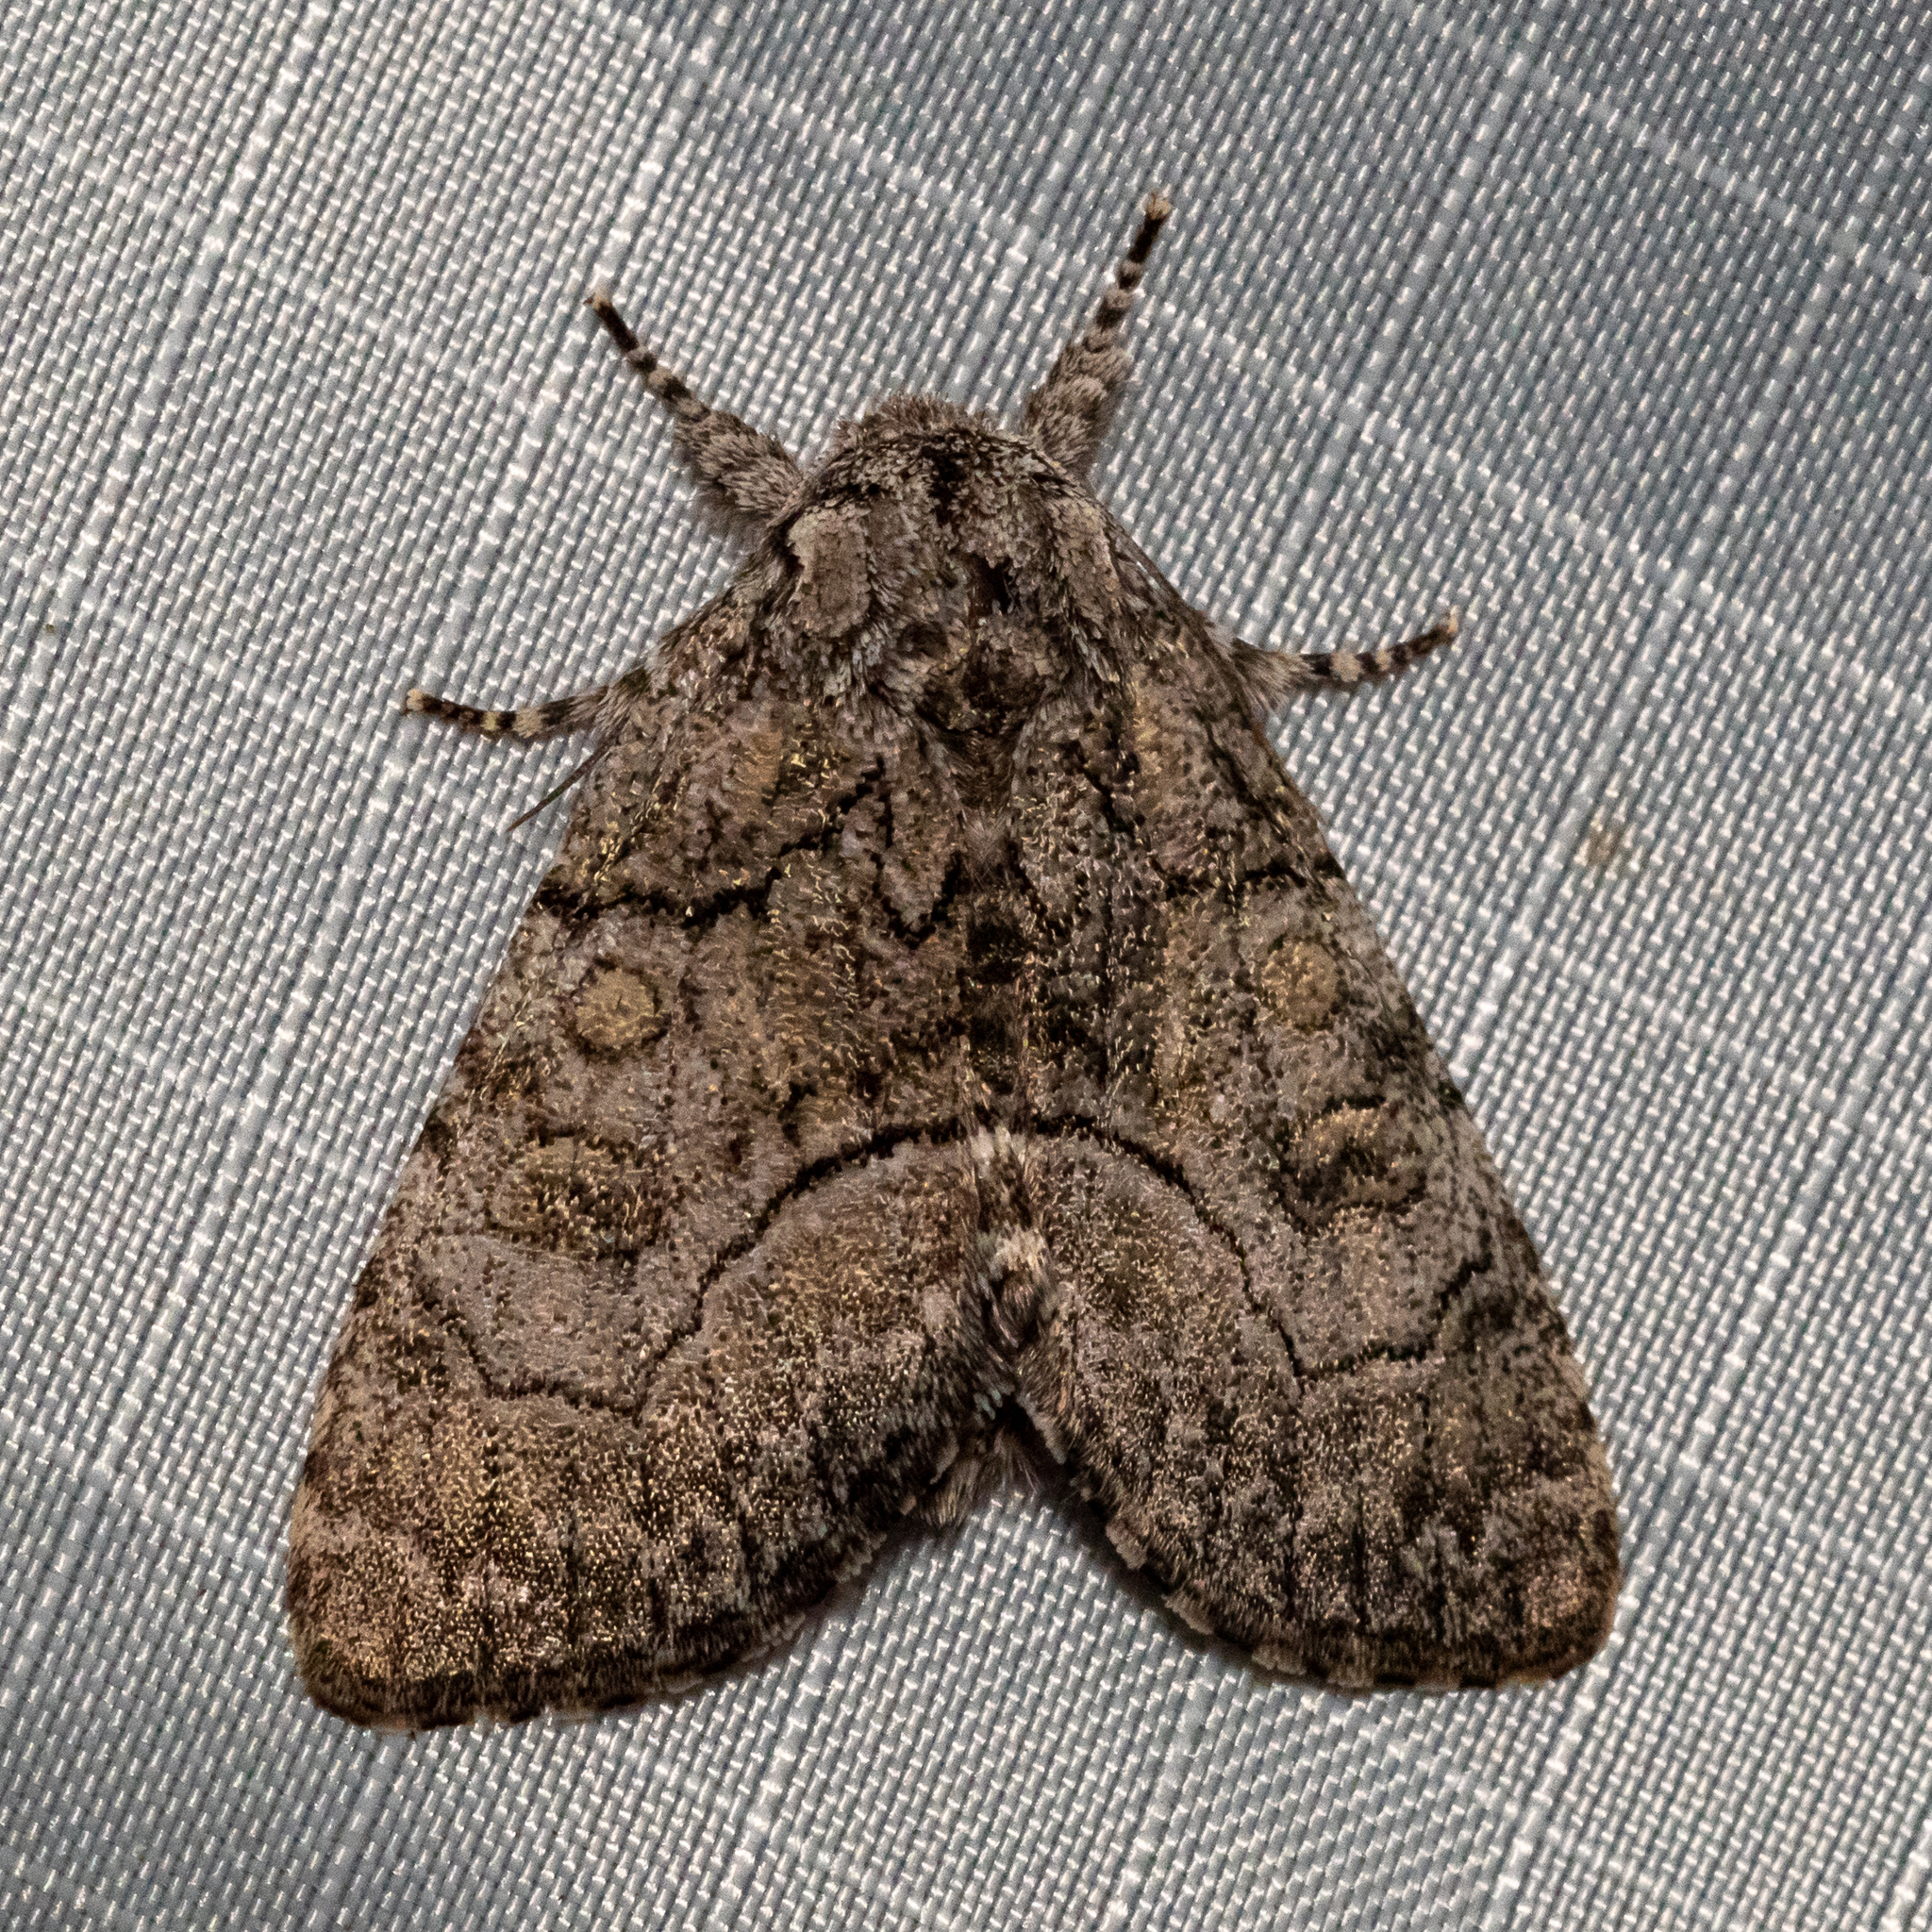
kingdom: Animalia
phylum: Arthropoda
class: Insecta
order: Lepidoptera
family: Noctuidae
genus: Raphia
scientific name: Raphia frater
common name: Brother
